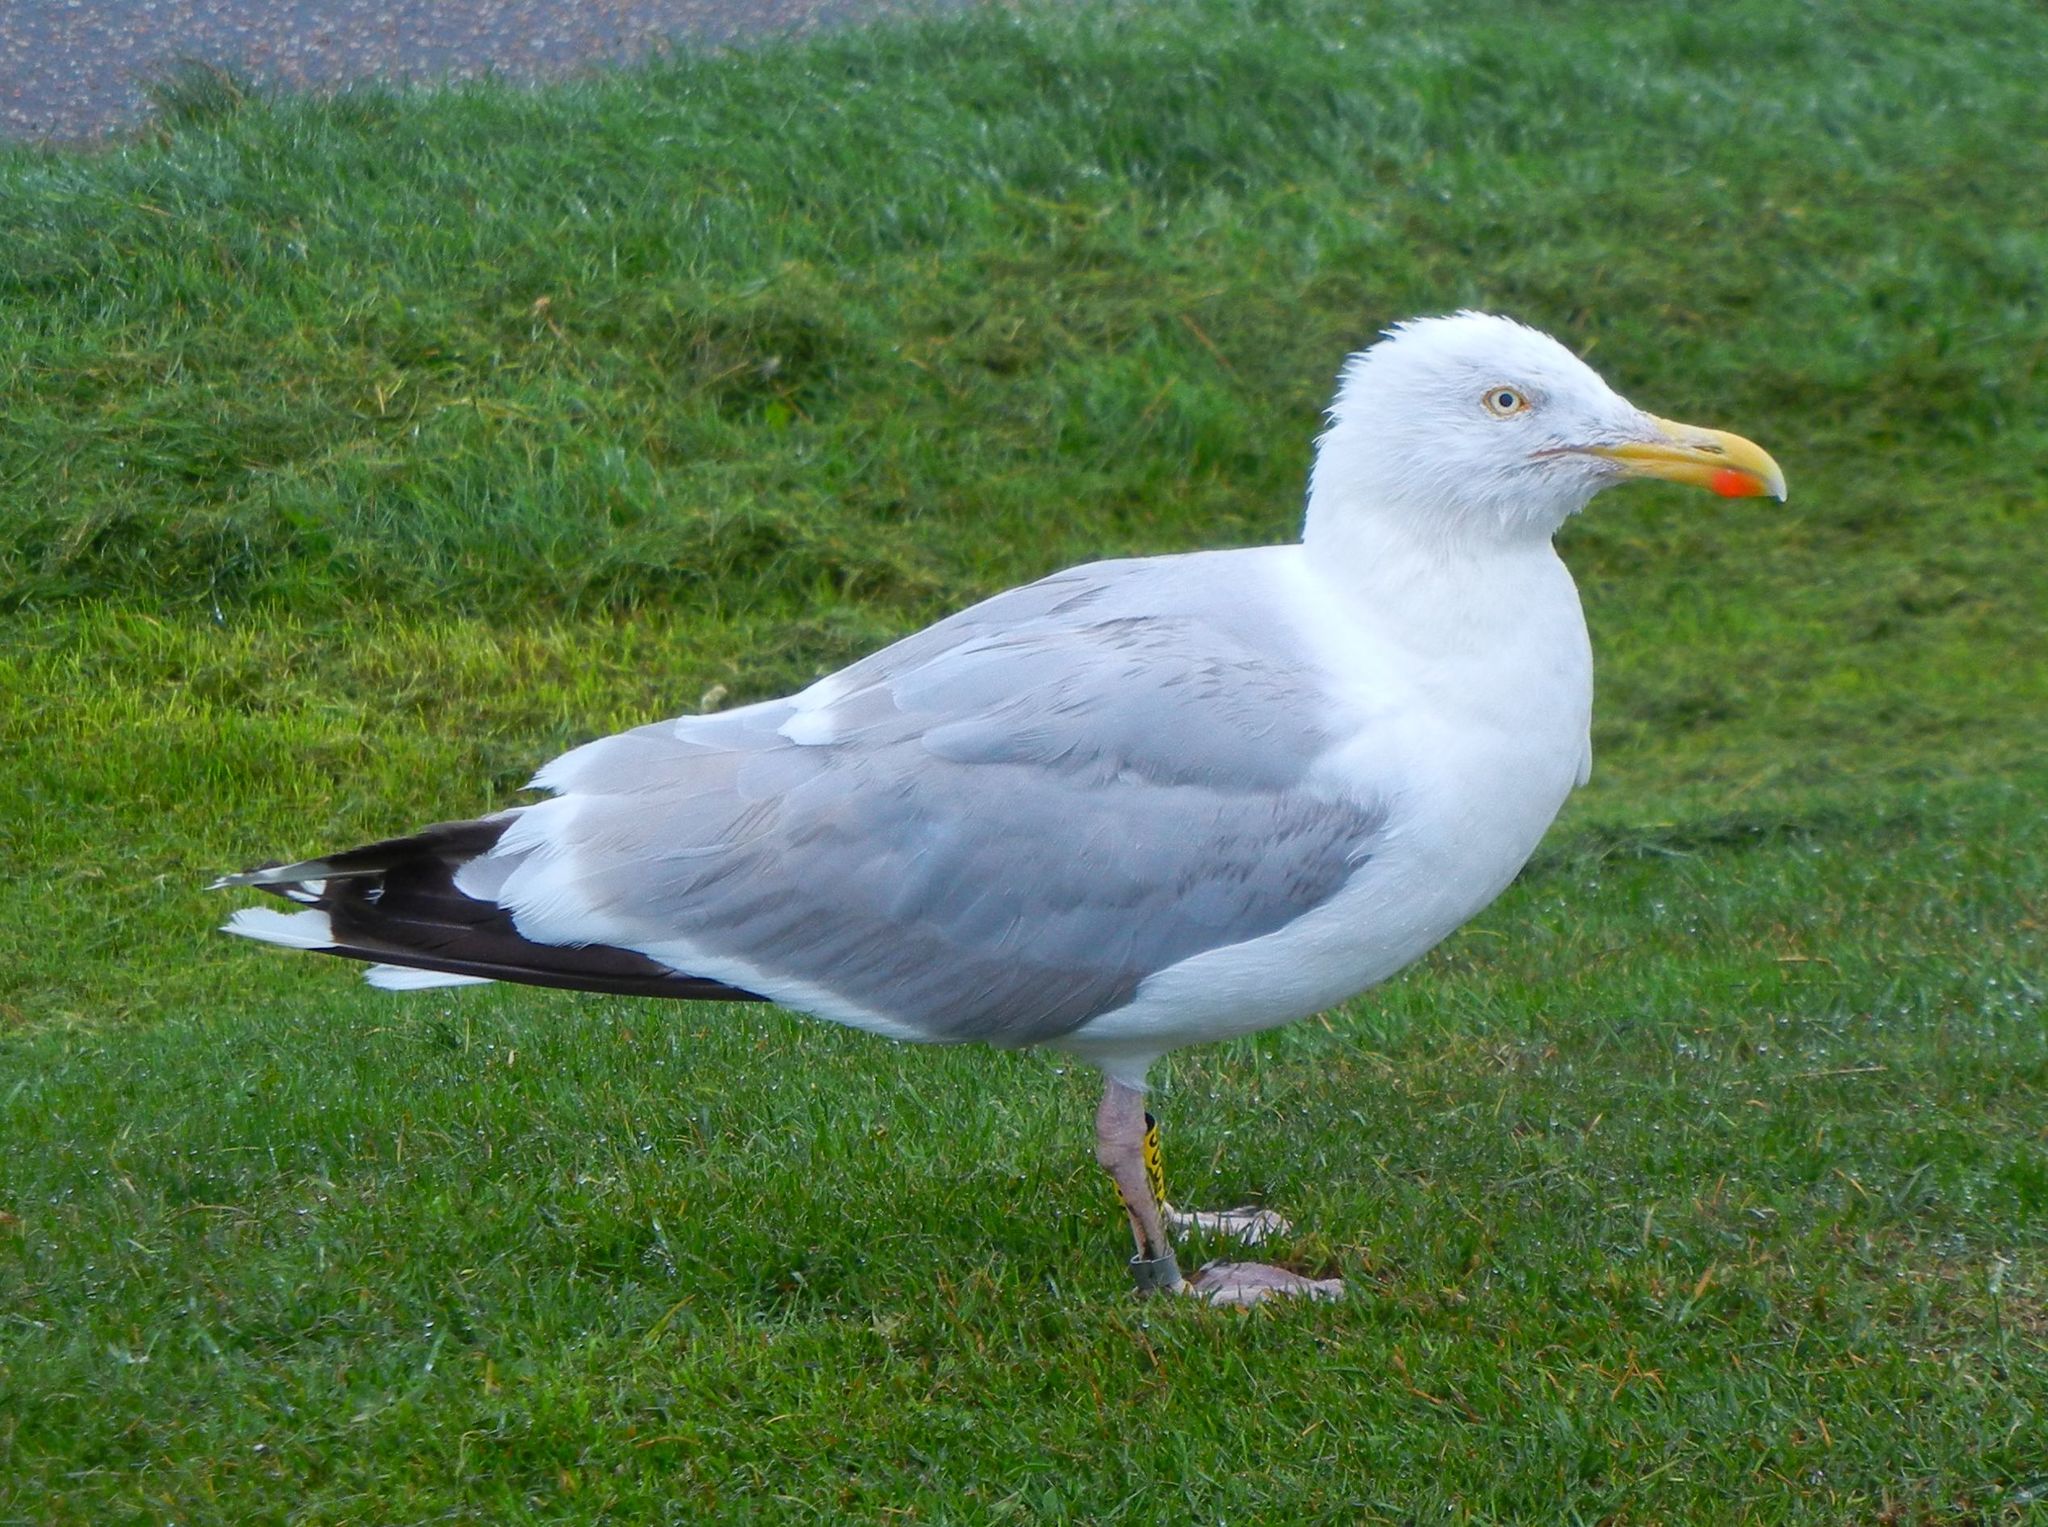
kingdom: Animalia
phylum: Chordata
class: Aves
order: Charadriiformes
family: Laridae
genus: Larus
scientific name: Larus argentatus
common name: Herring gull
